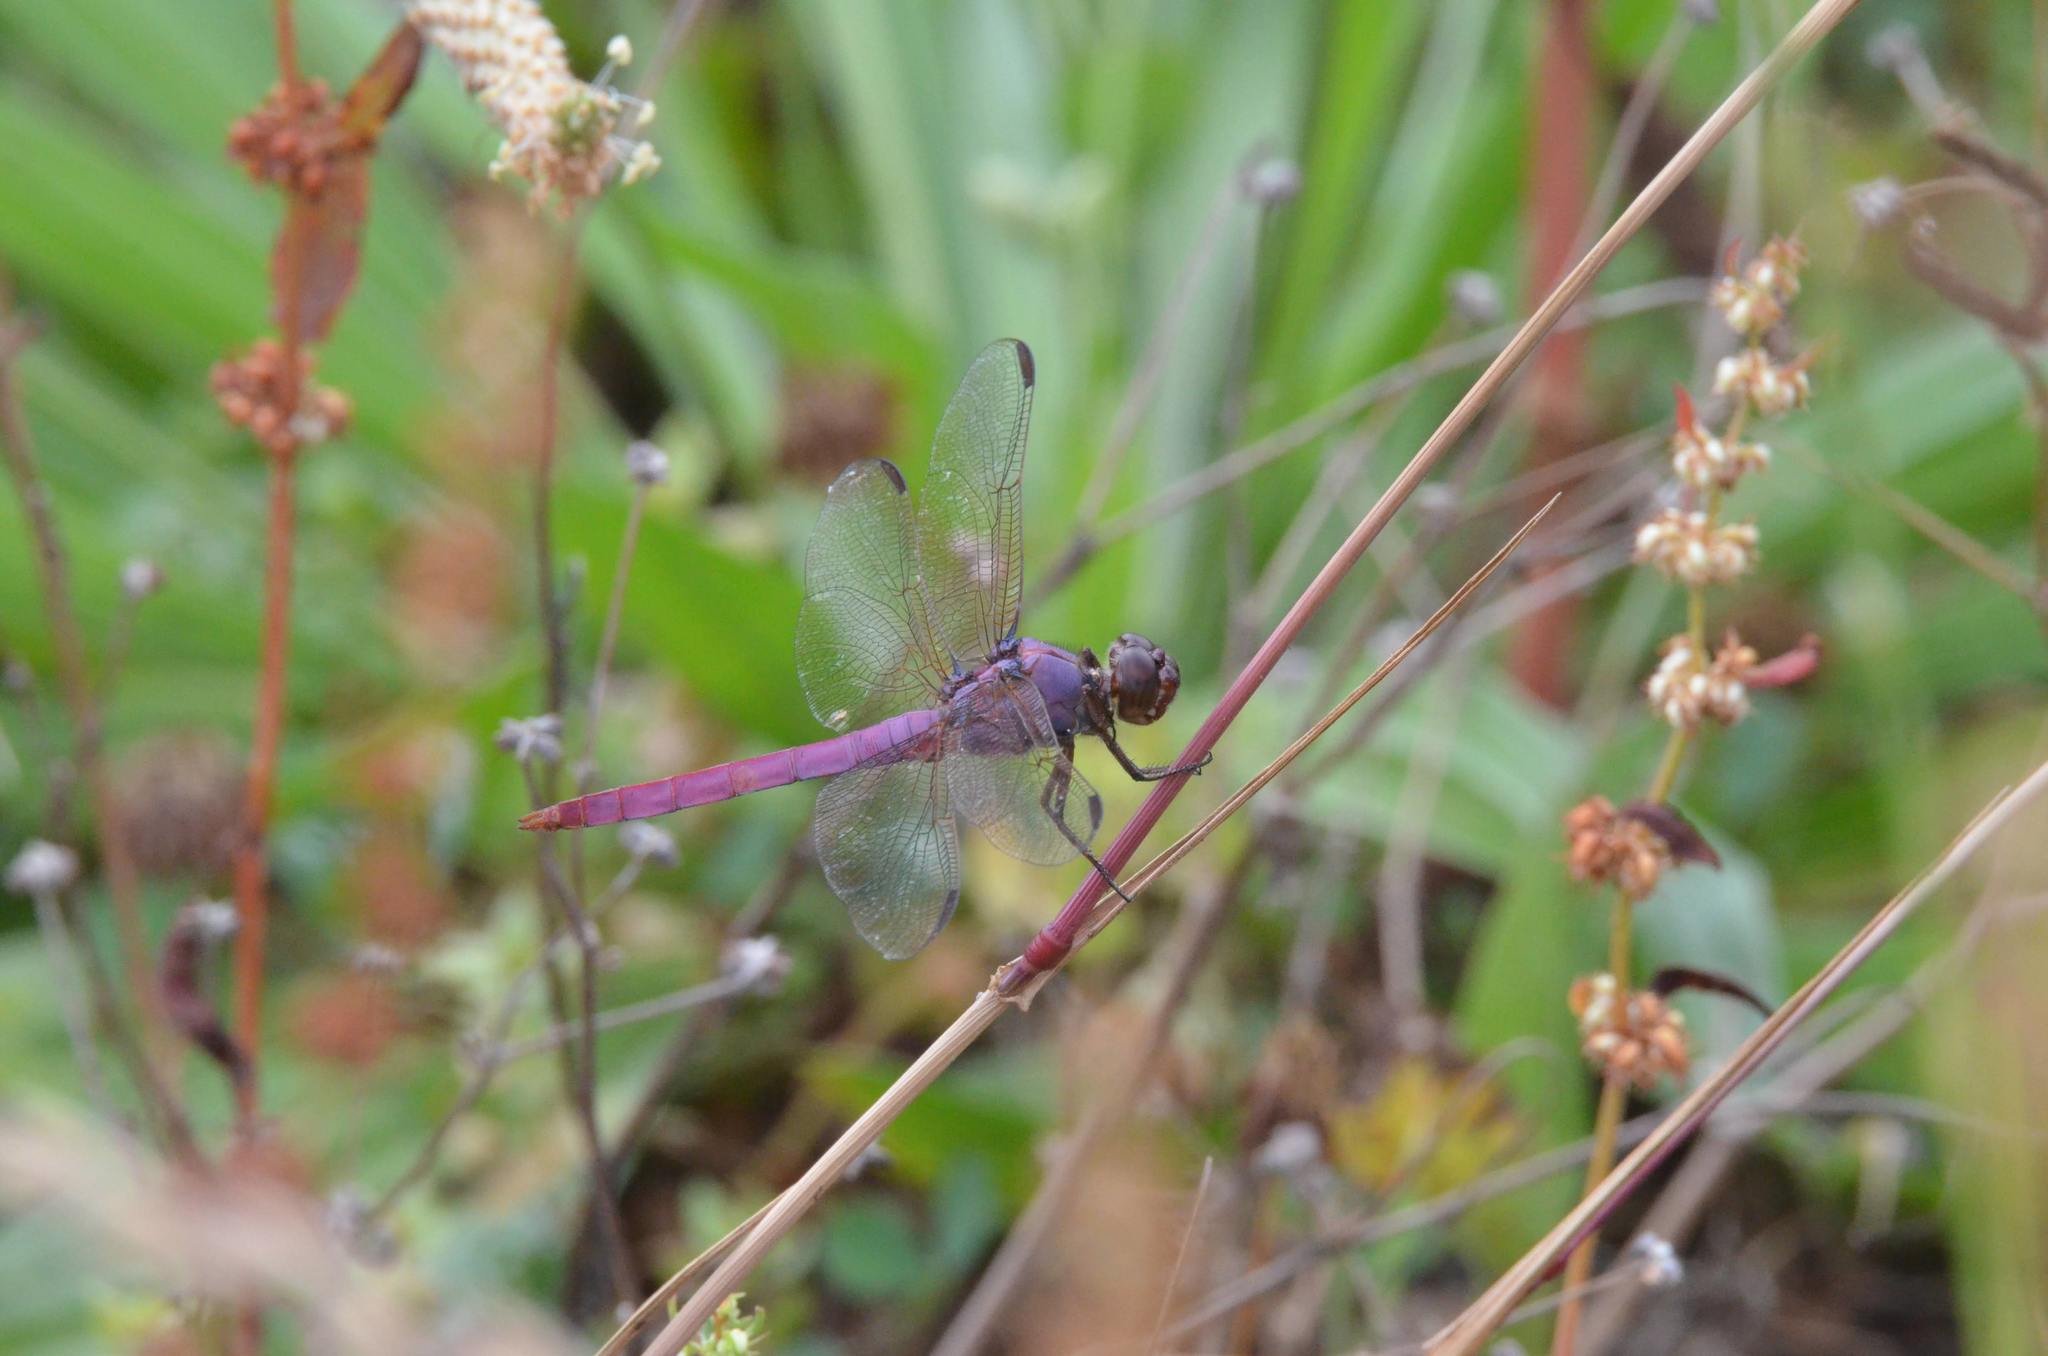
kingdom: Animalia
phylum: Arthropoda
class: Insecta
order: Odonata
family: Libellulidae
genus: Orthemis
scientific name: Orthemis ferruginea
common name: Roseate skimmer
